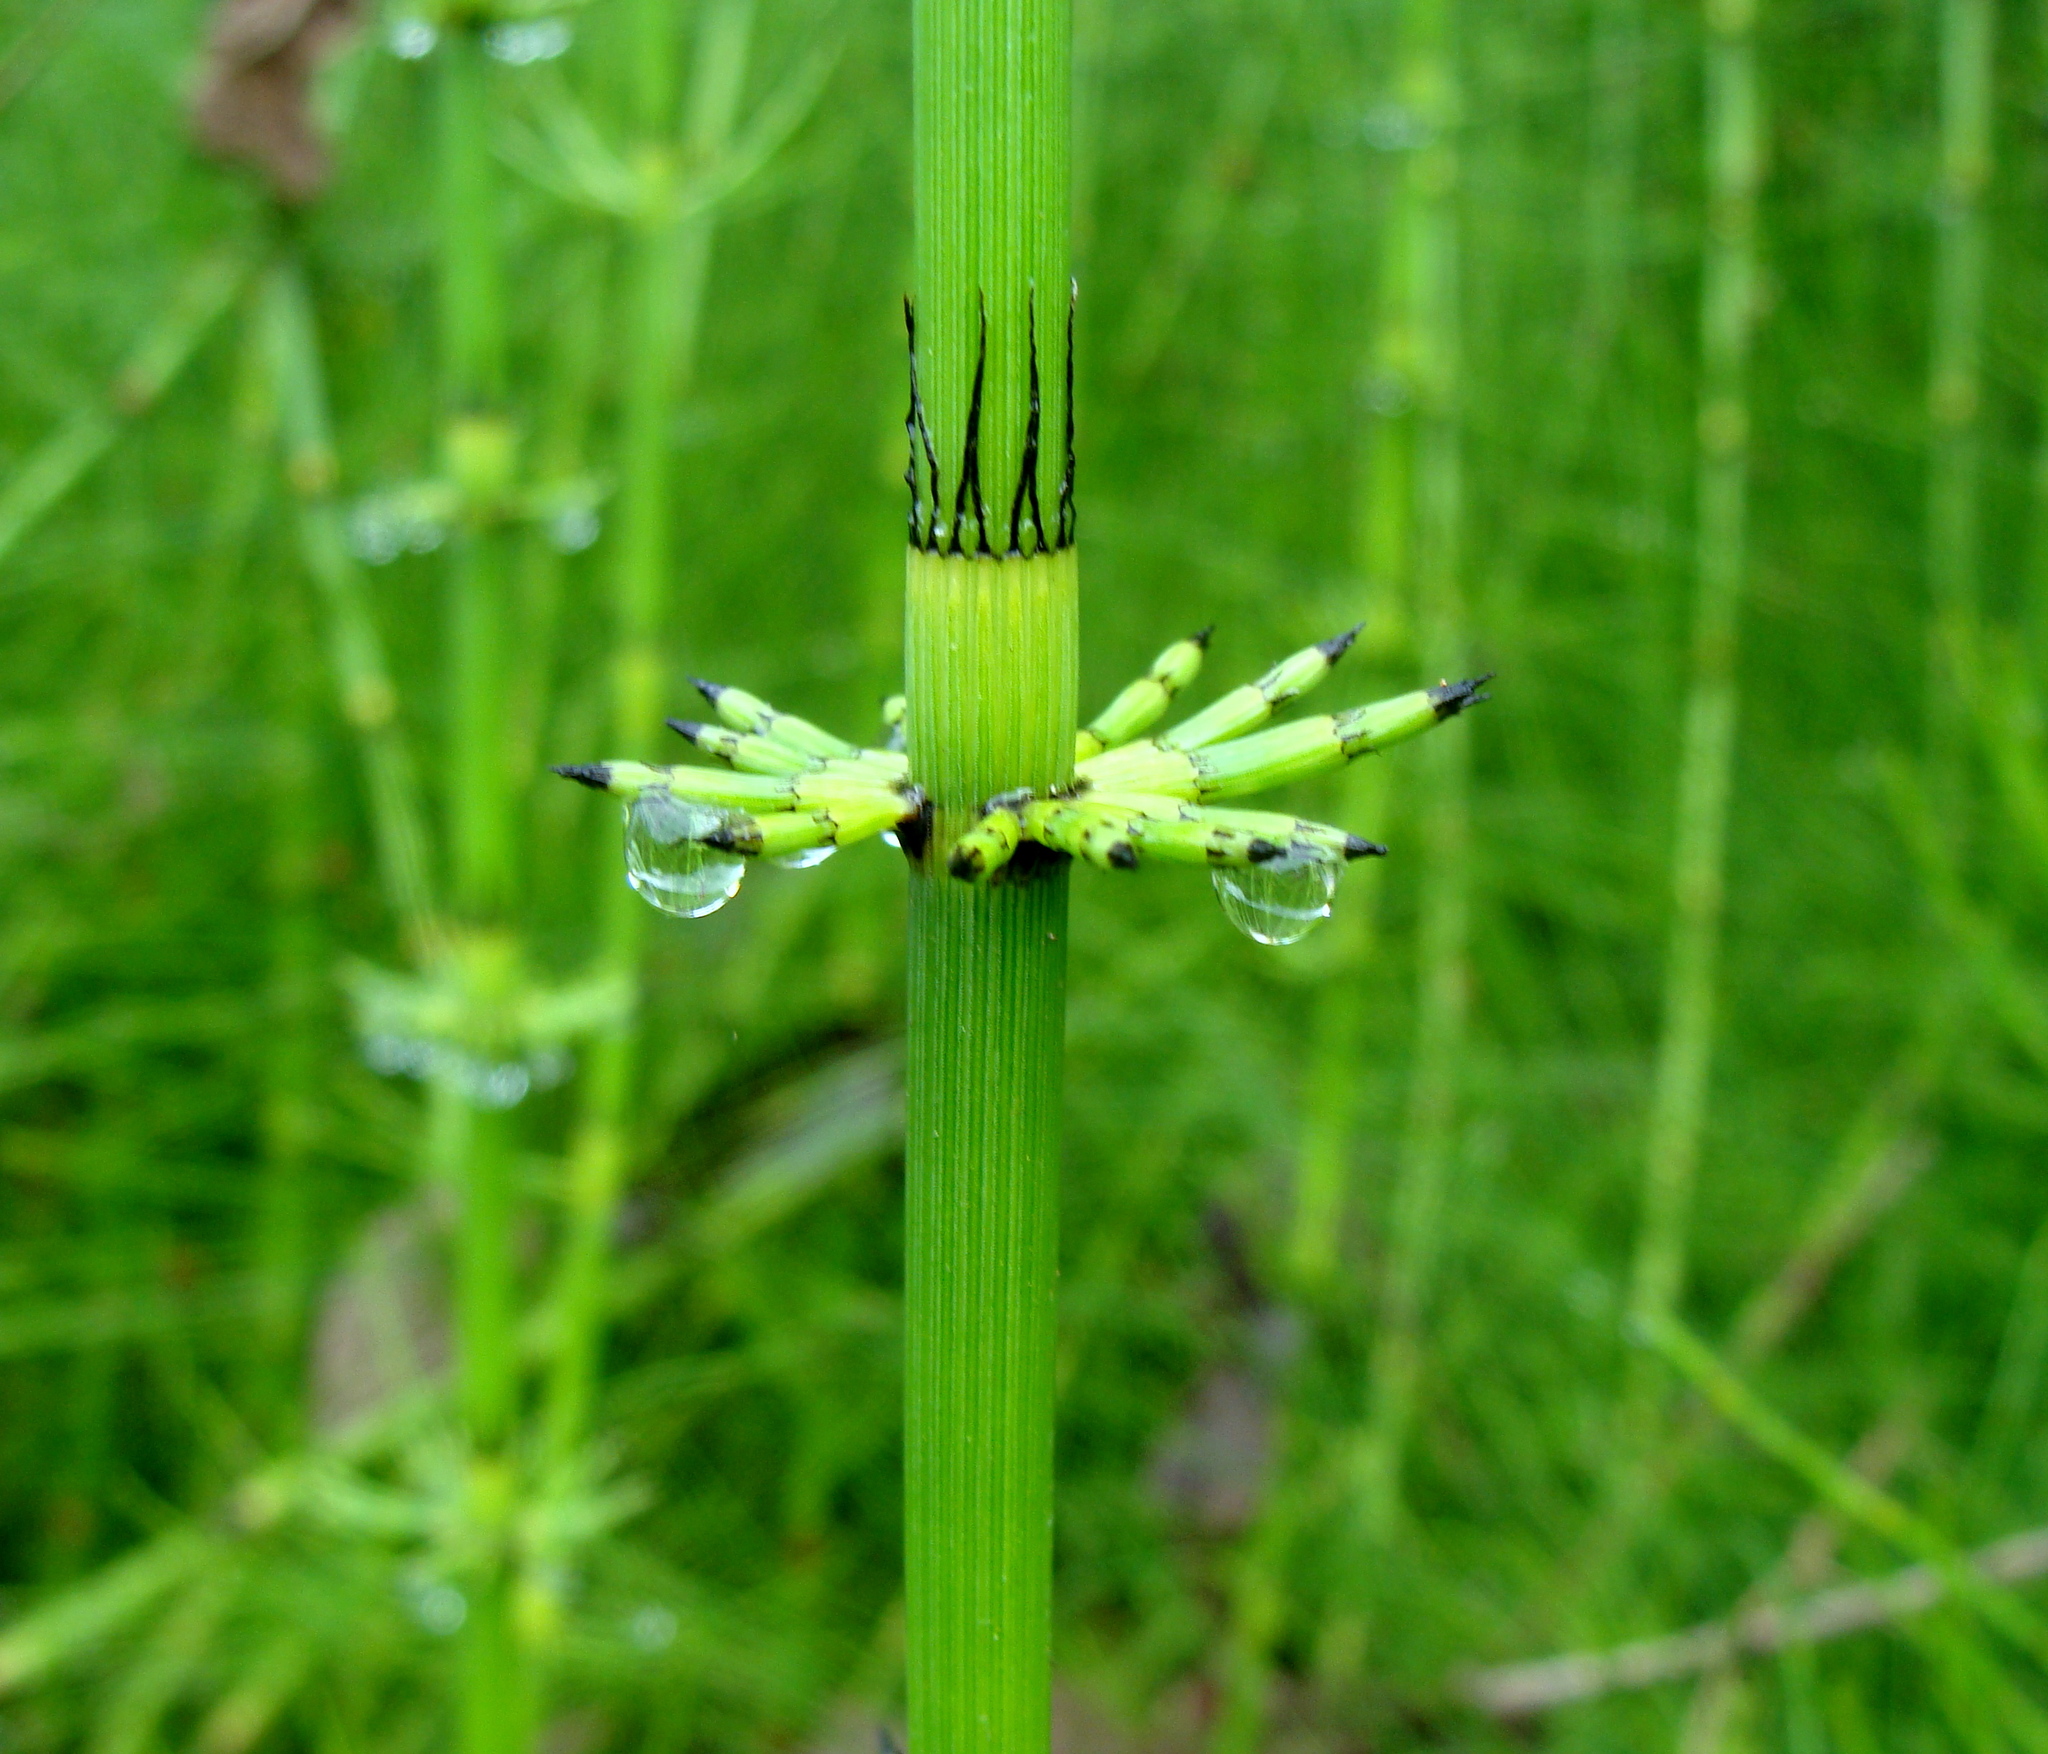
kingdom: Plantae
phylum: Tracheophyta
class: Polypodiopsida
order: Equisetales
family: Equisetaceae
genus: Equisetum
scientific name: Equisetum myriochaetum
